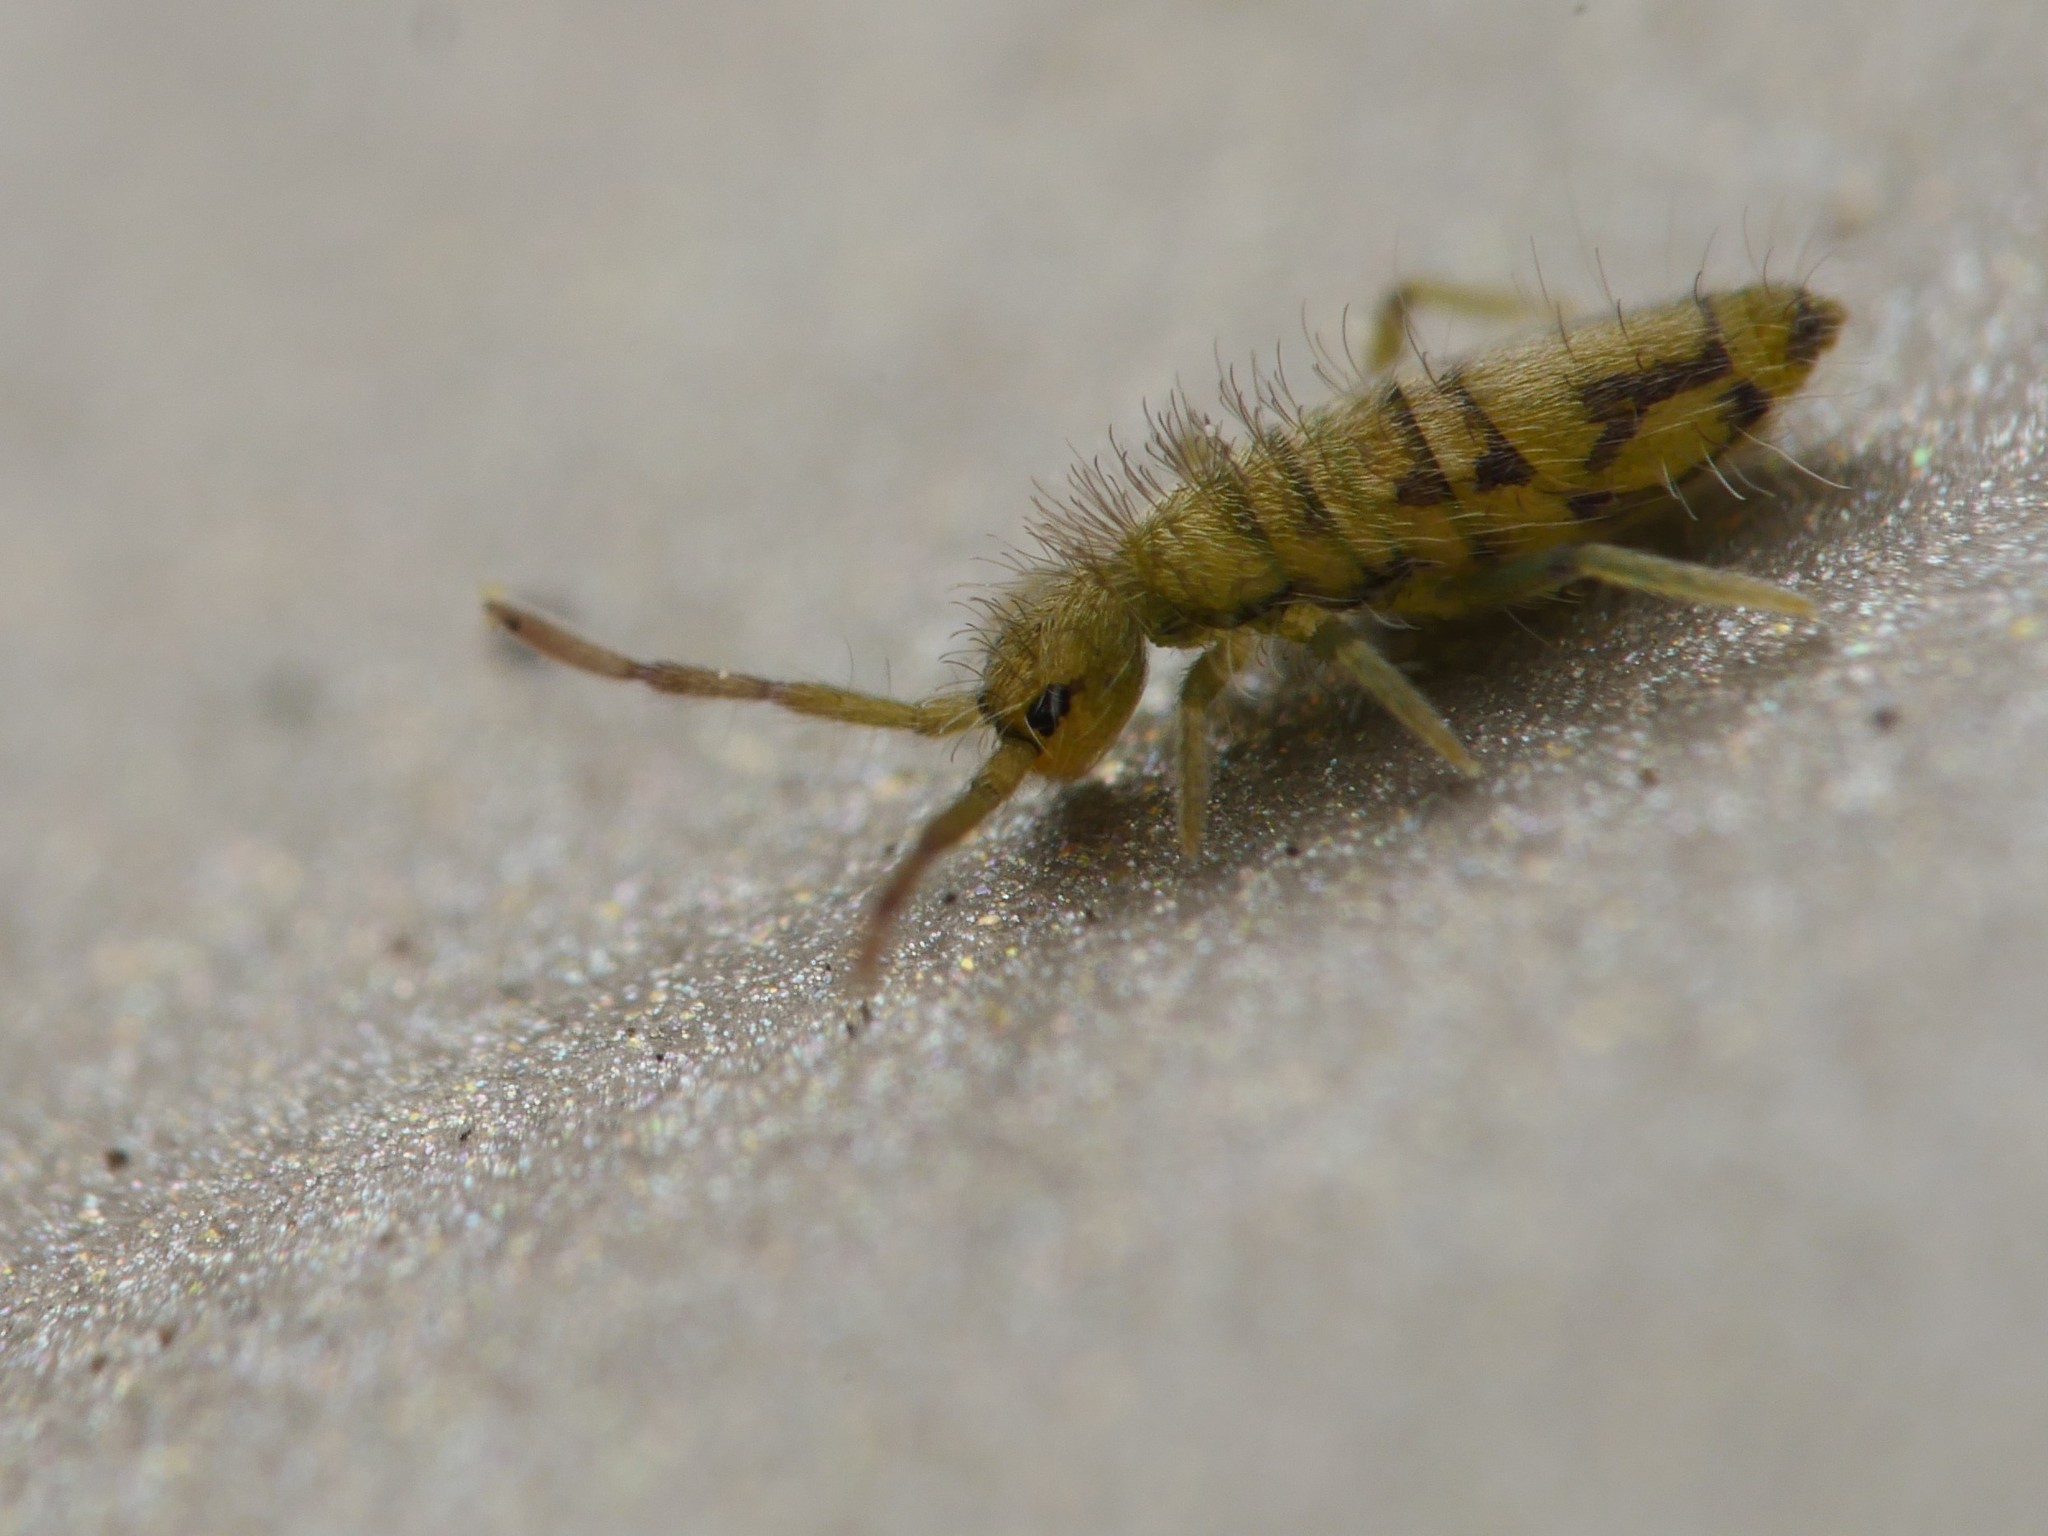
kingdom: Animalia
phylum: Arthropoda
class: Collembola
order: Entomobryomorpha
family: Entomobryidae
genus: Entomobrya
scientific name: Entomobrya nivalis
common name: Cosmopolitan springtail
